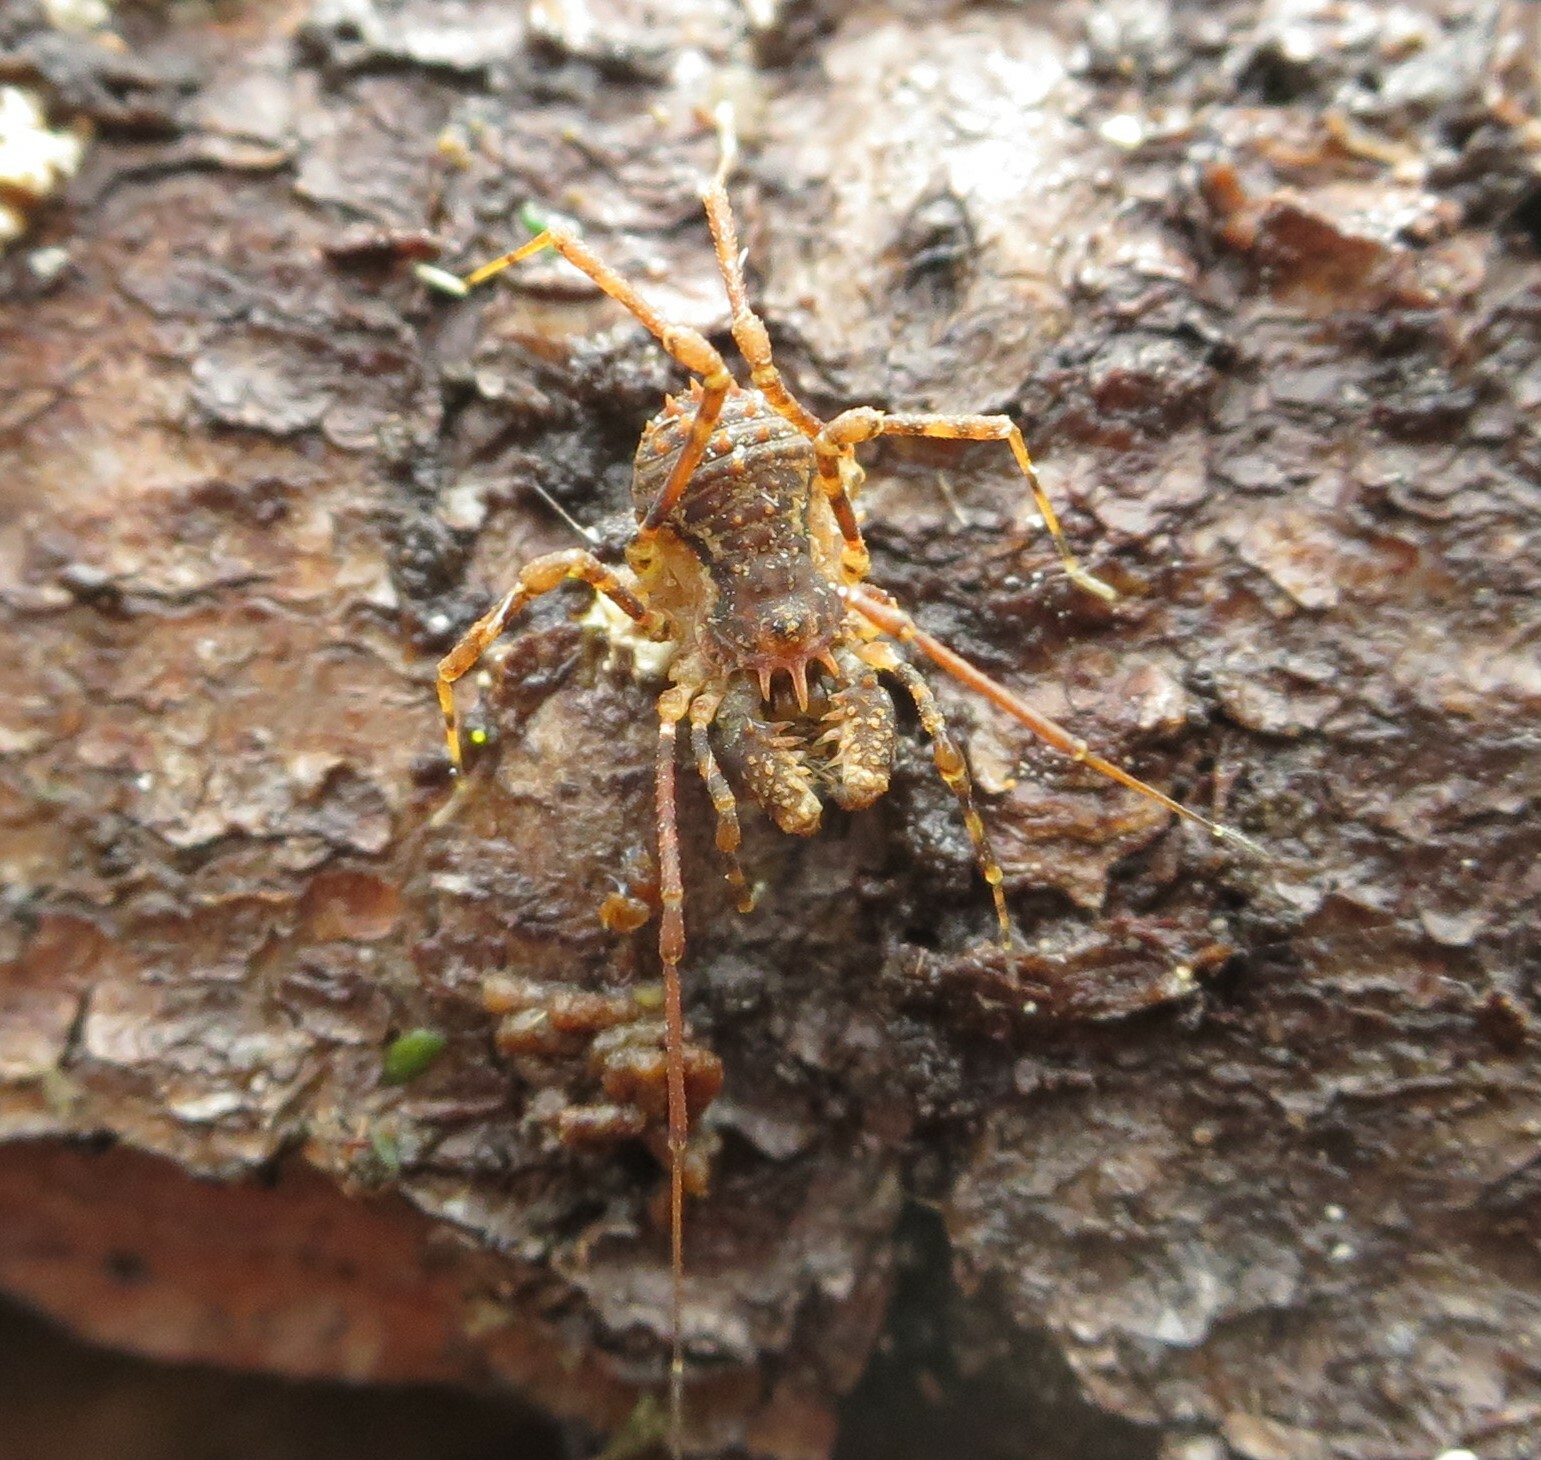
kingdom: Animalia
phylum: Arthropoda
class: Arachnida
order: Opiliones
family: Triaenonychidae
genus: Algidia
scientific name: Algidia chiltoni
